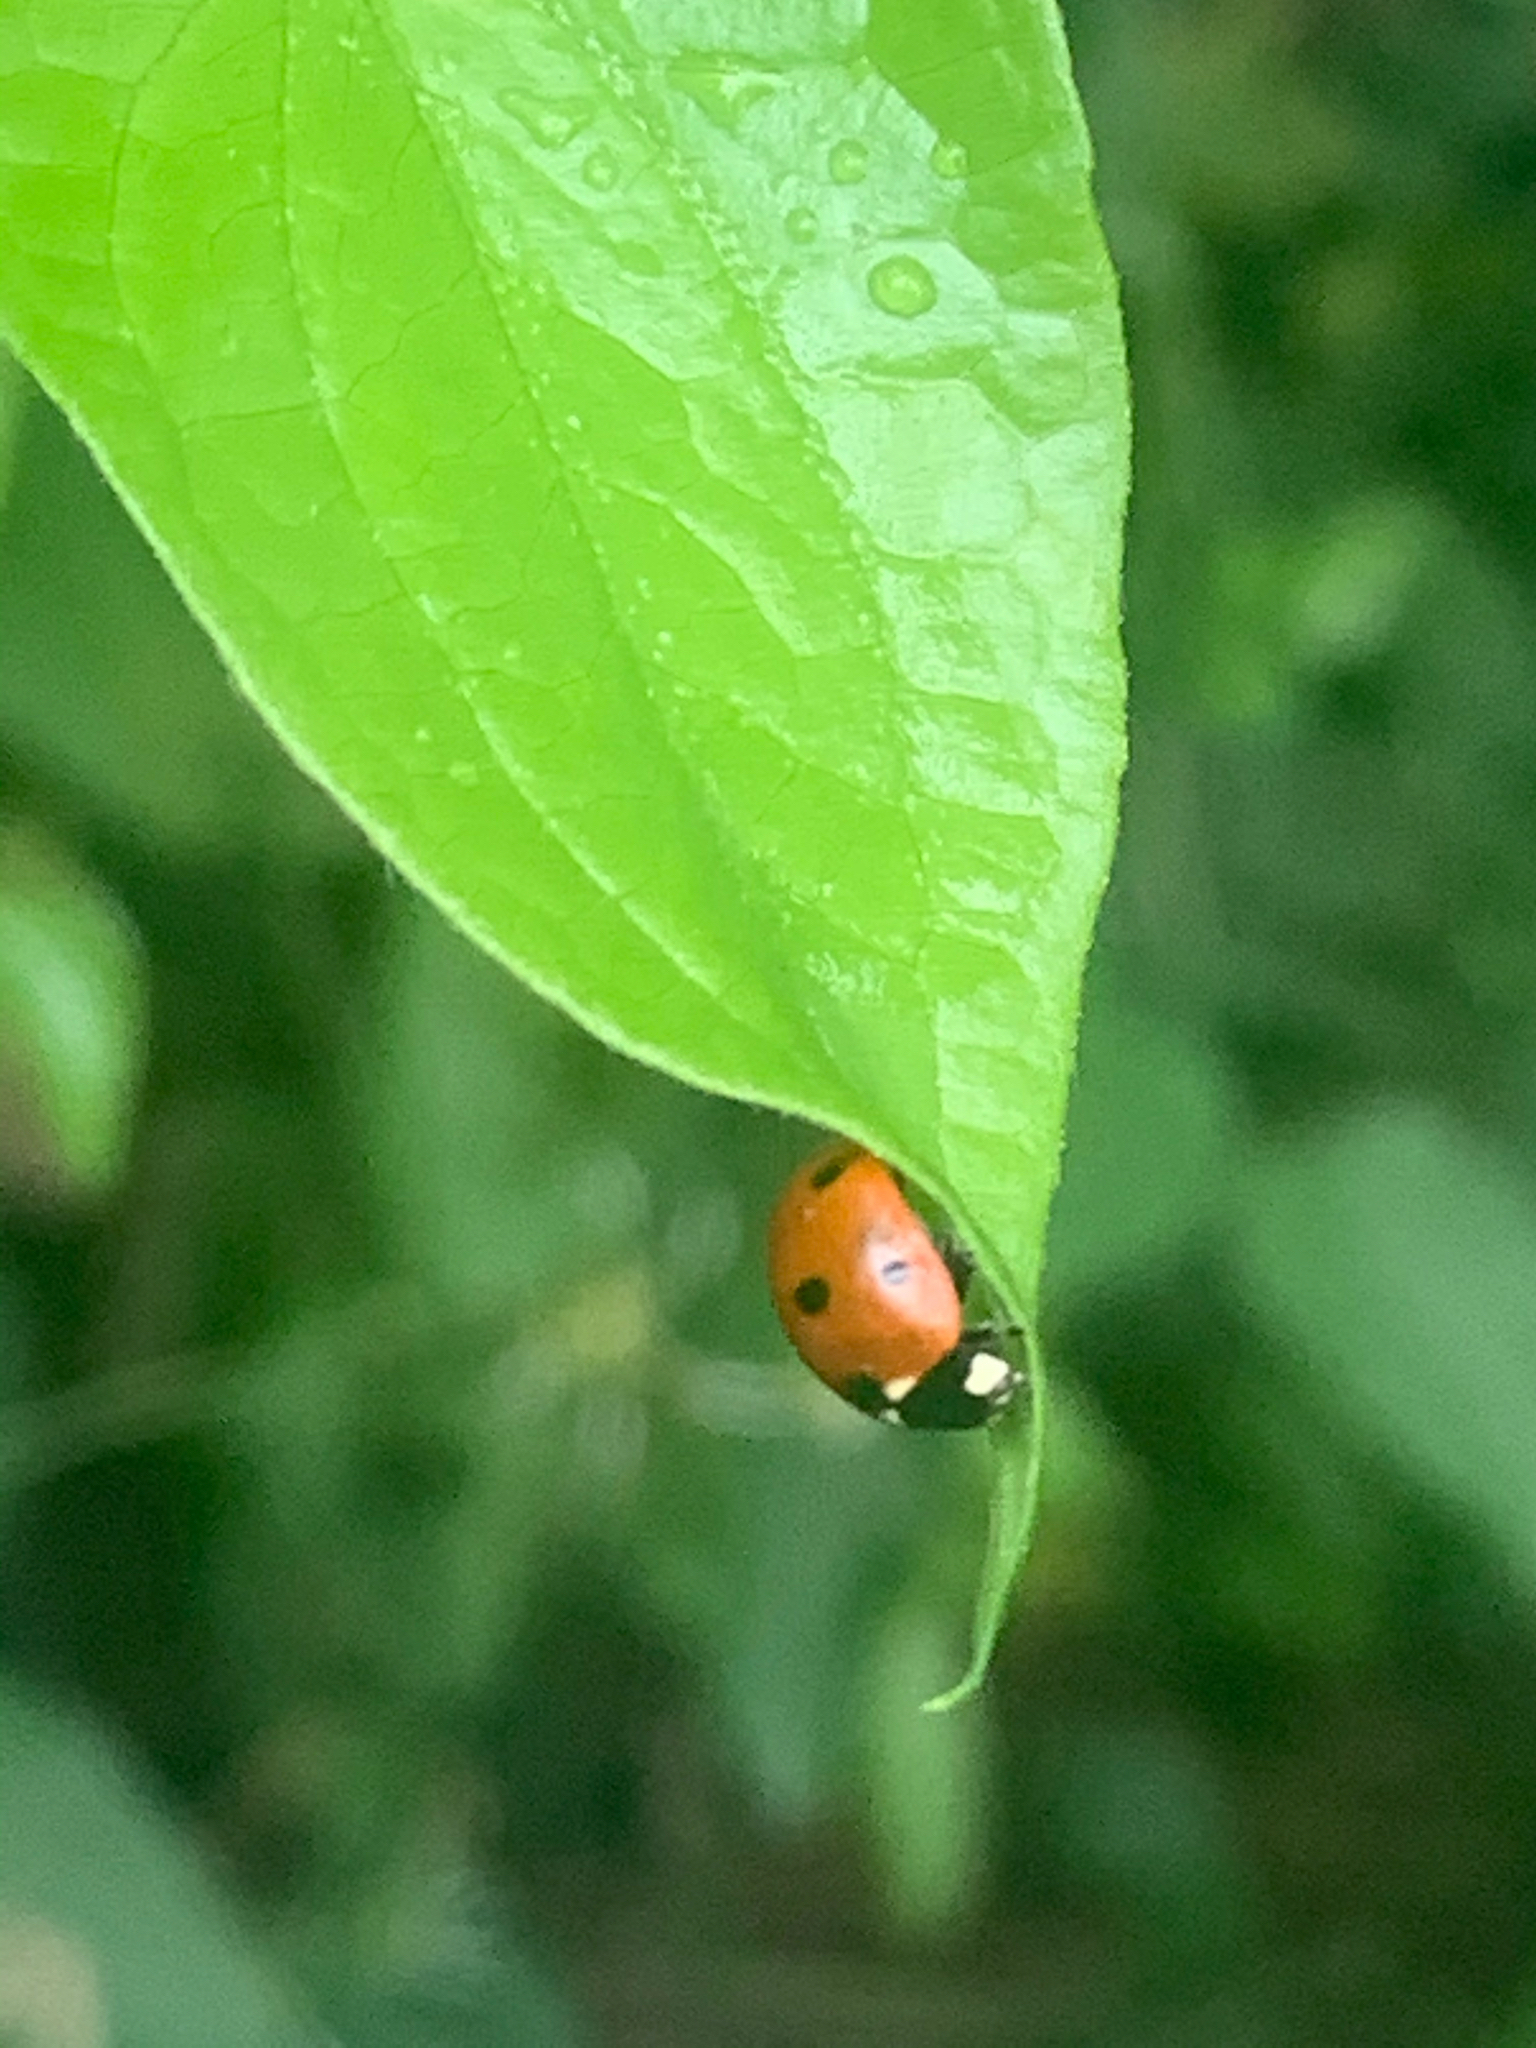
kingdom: Animalia
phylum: Arthropoda
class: Insecta
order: Coleoptera
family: Coccinellidae
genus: Coccinella
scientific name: Coccinella septempunctata
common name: Sevenspotted lady beetle
